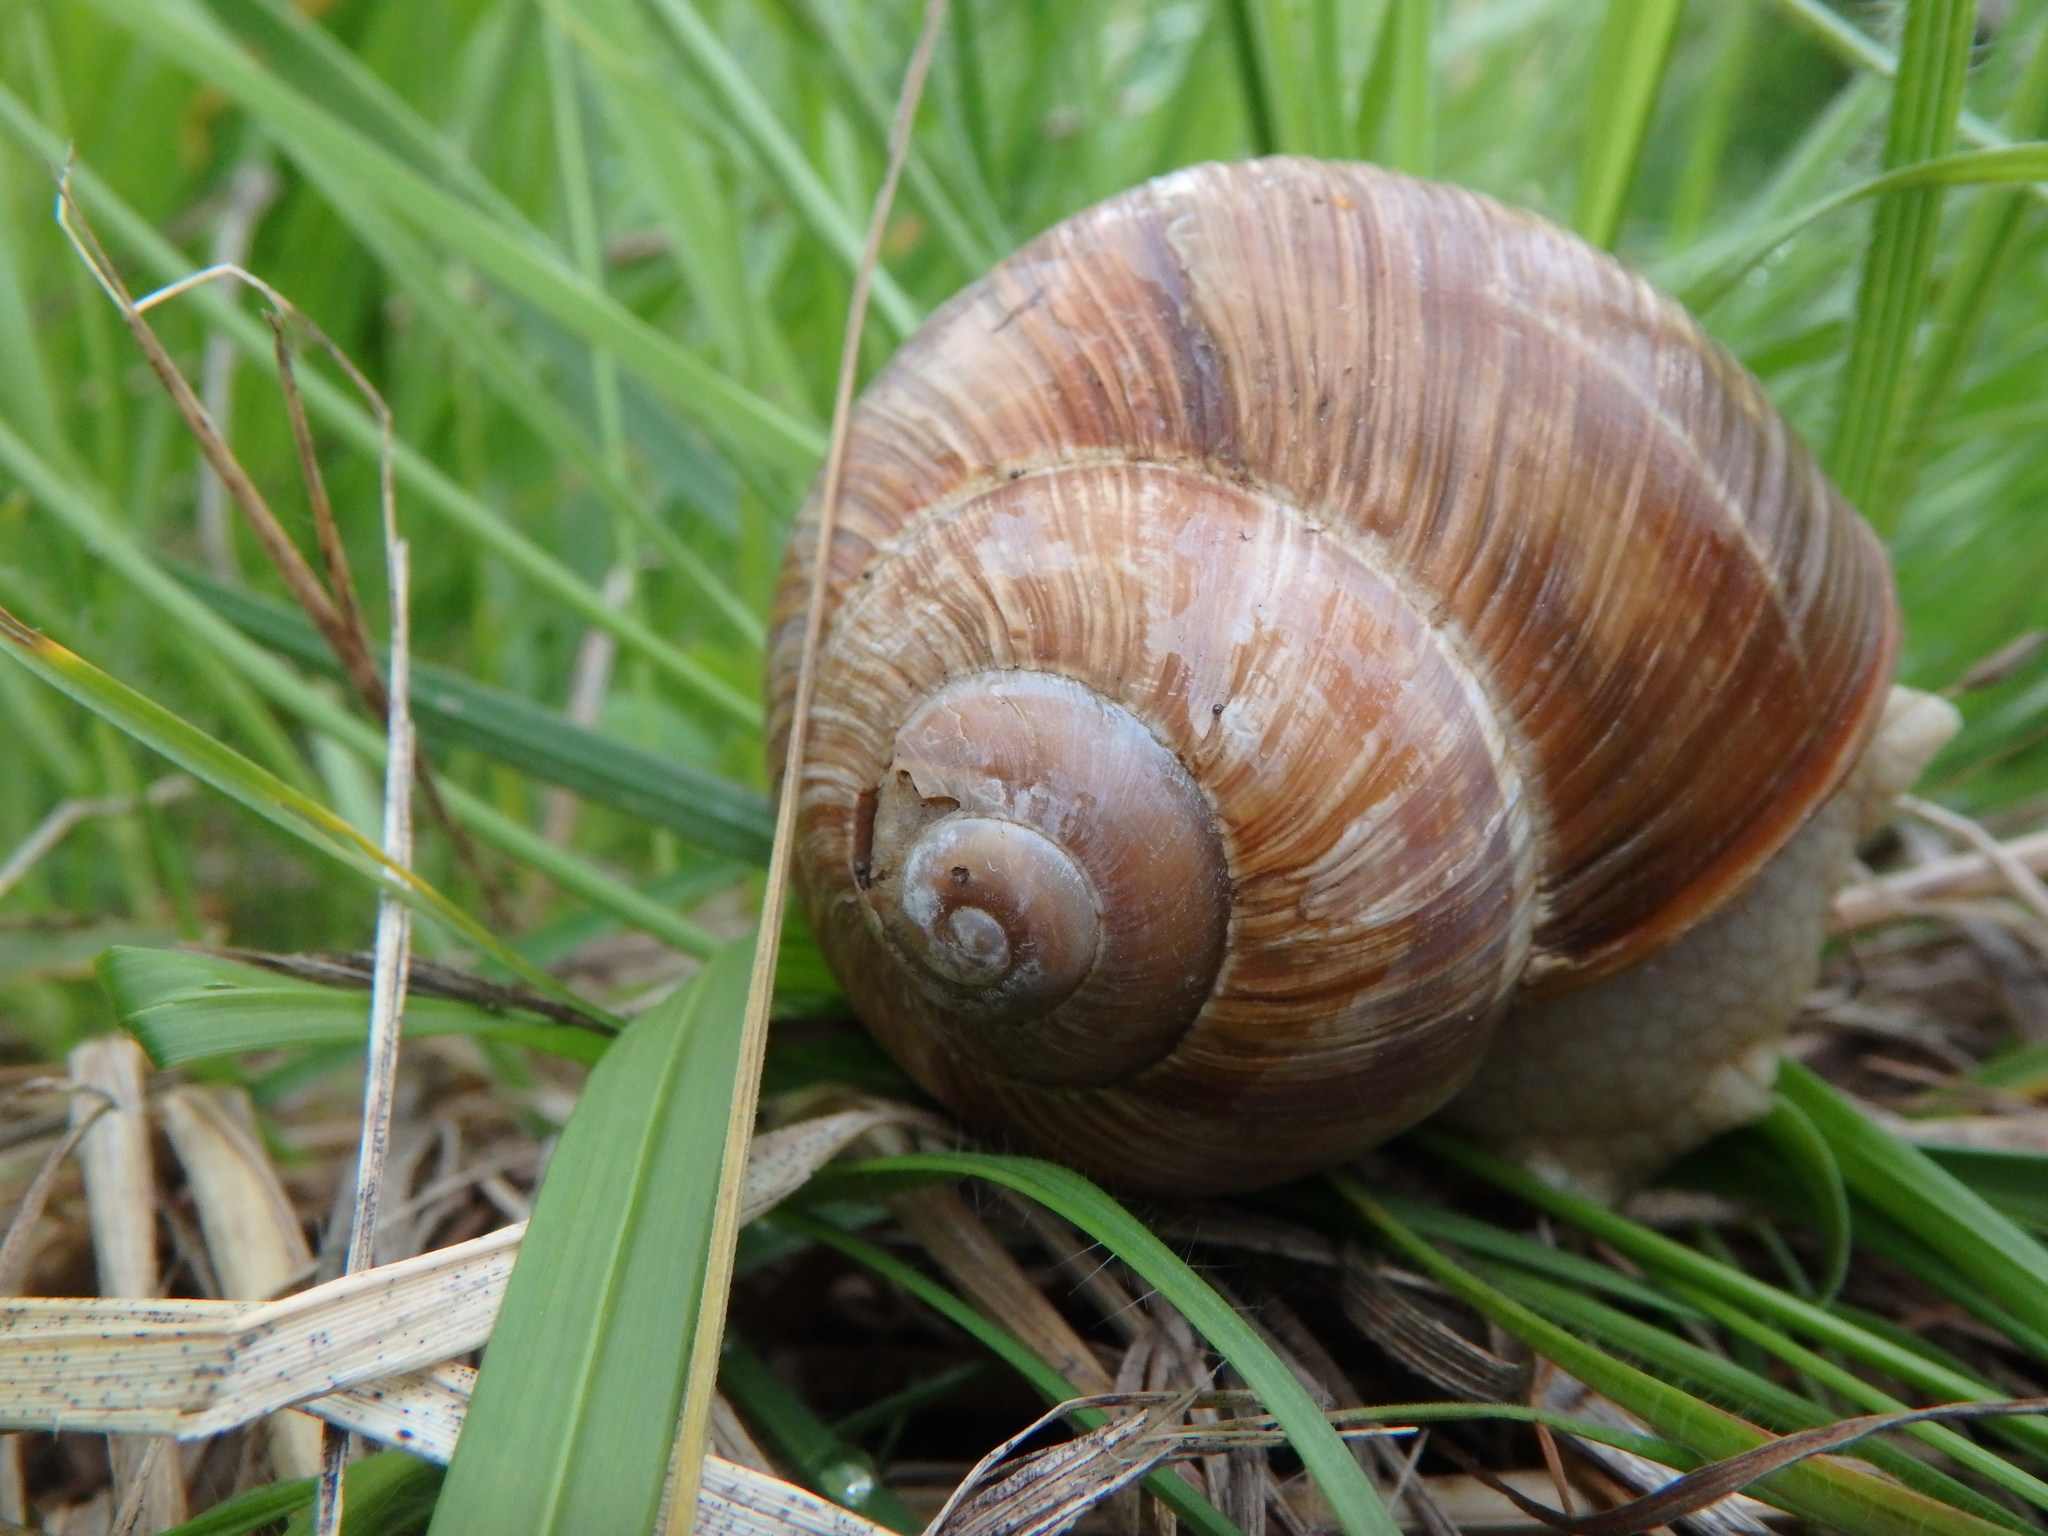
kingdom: Animalia
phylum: Mollusca
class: Gastropoda
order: Stylommatophora
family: Helicidae
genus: Helix
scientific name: Helix pomatia
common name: Roman snail
